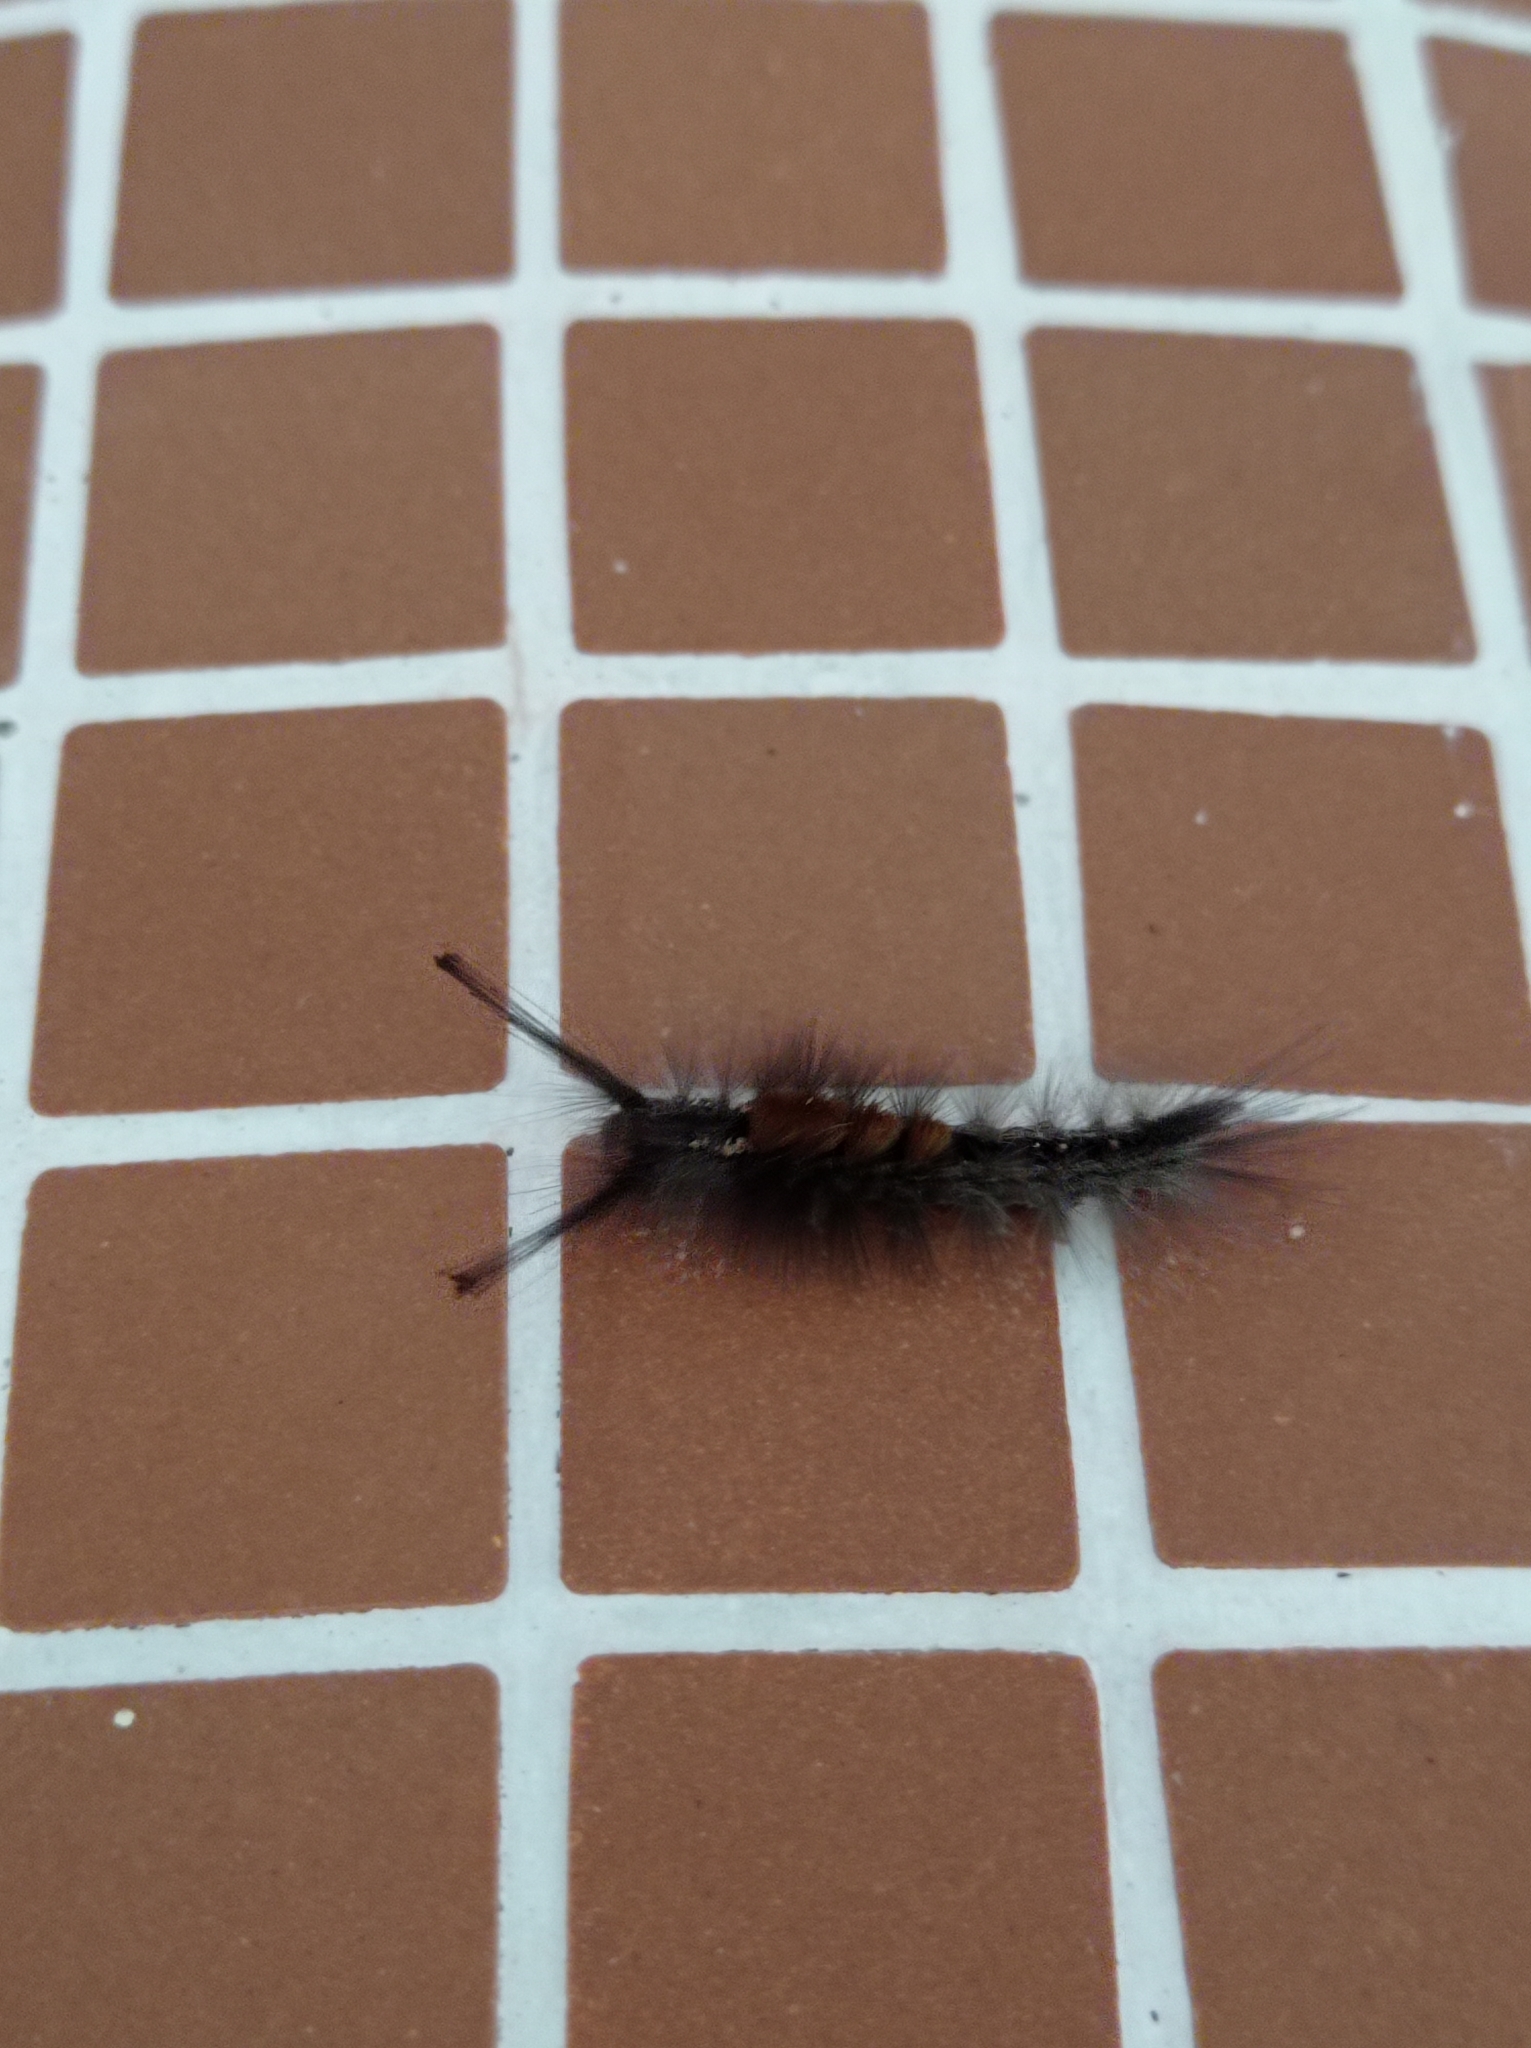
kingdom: Animalia
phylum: Arthropoda
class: Insecta
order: Lepidoptera
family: Erebidae
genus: Dasychira
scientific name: Dasychira chekiangensis
